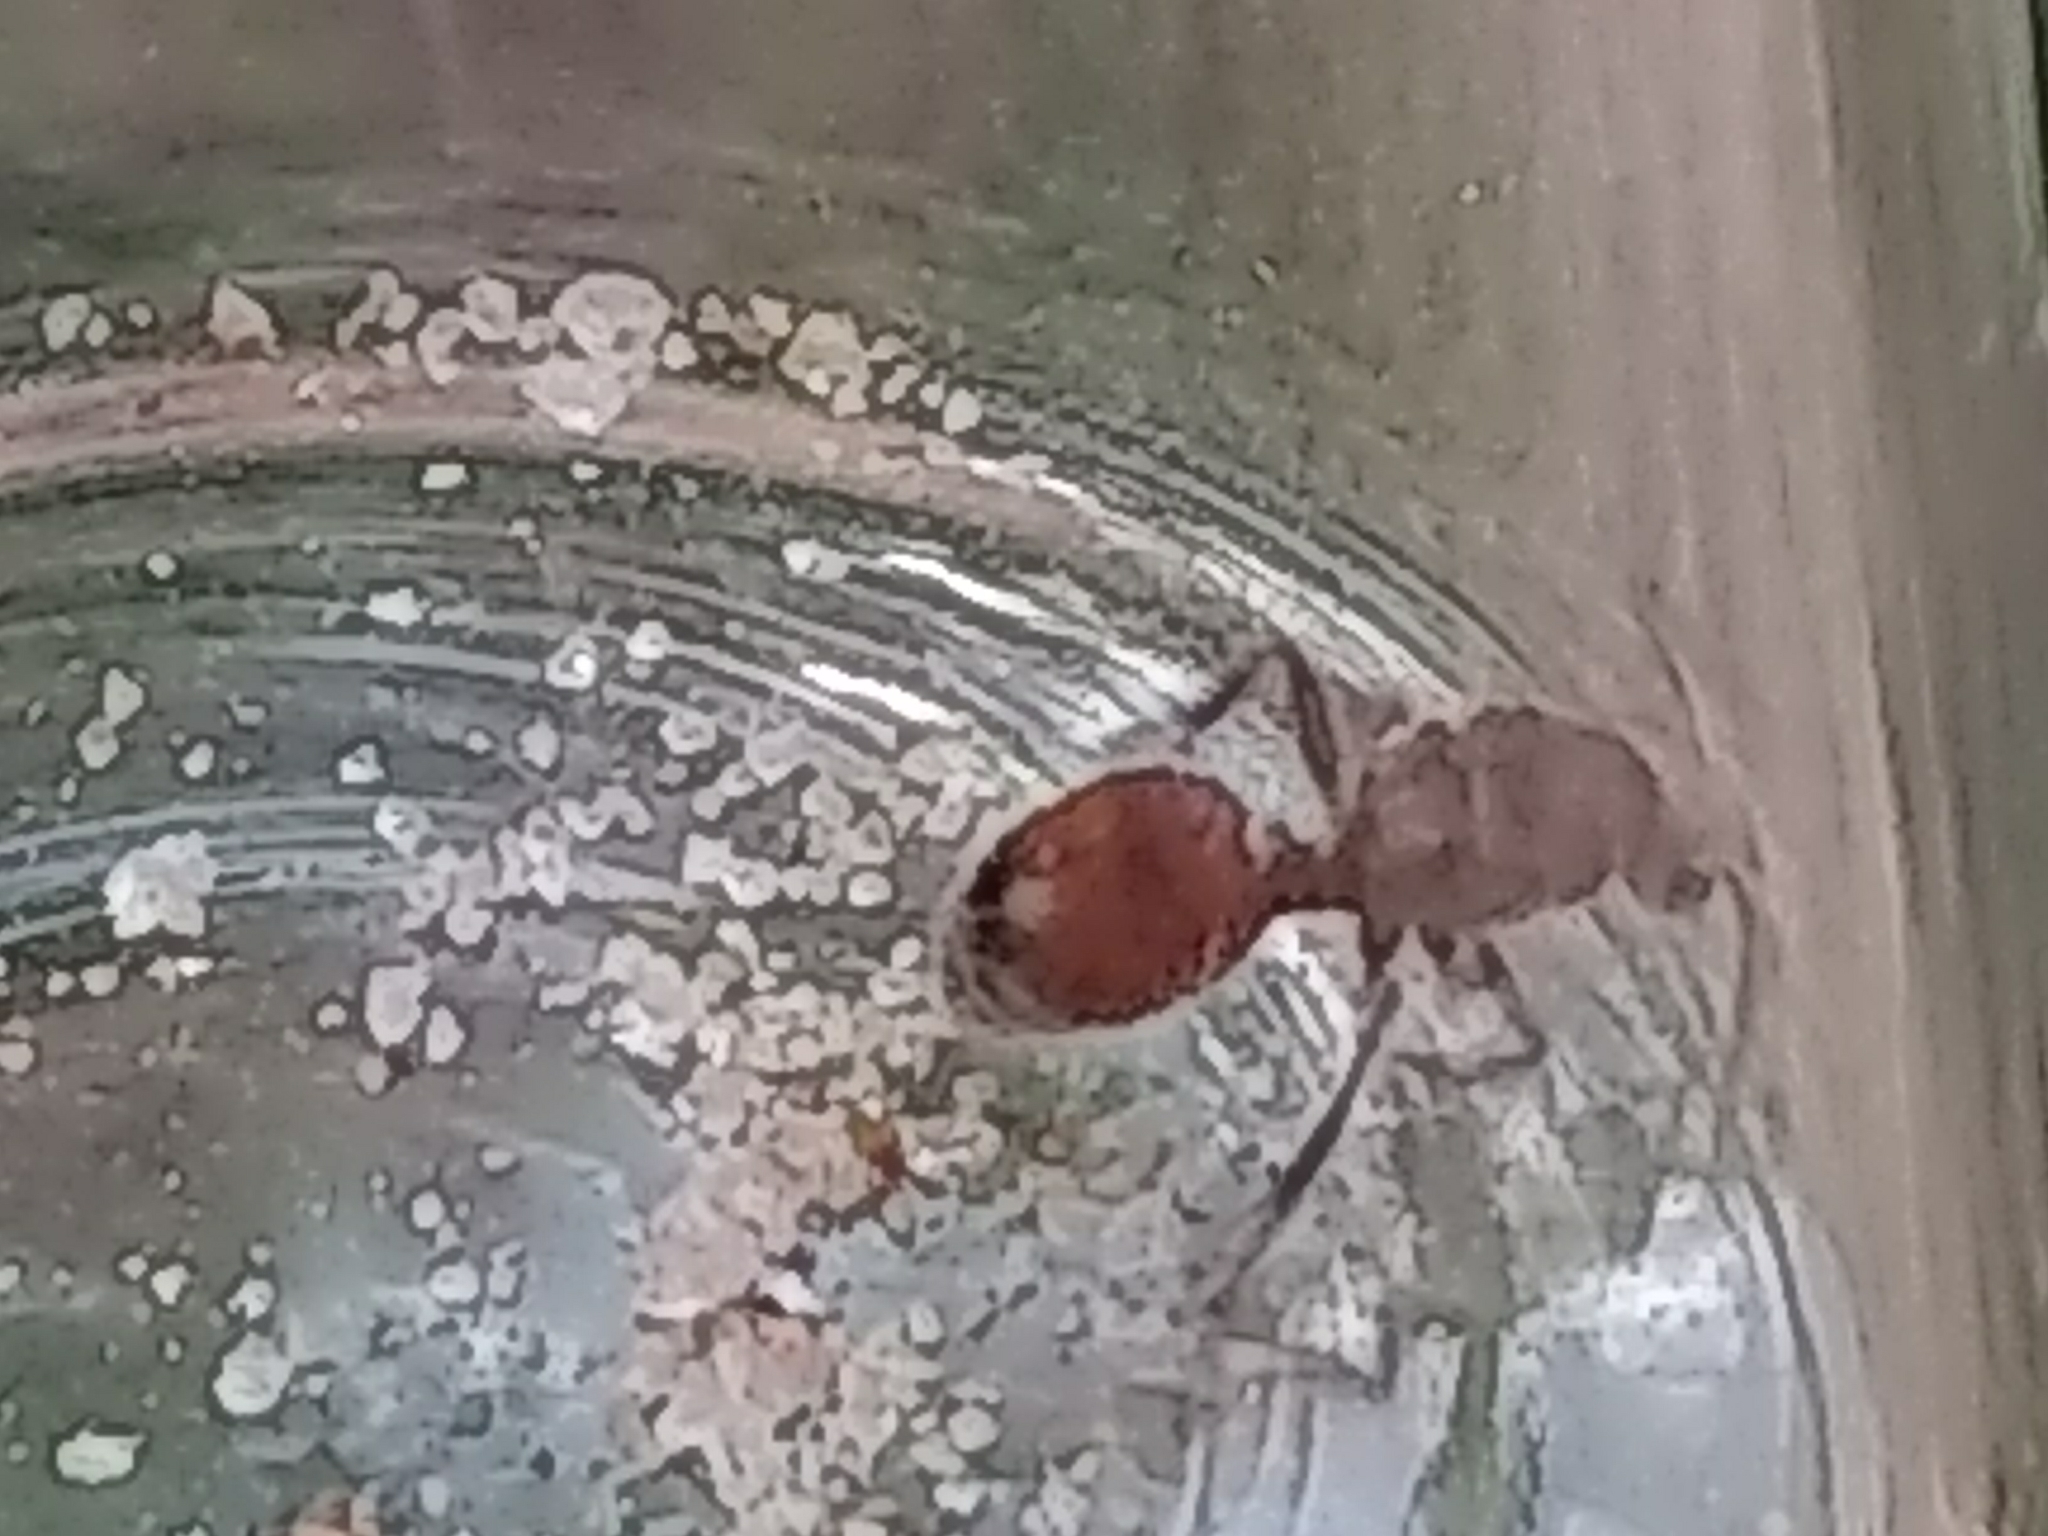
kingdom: Animalia
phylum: Arthropoda
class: Insecta
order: Hymenoptera
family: Mutillidae
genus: Dasymutilla
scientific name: Dasymutilla birkmani
